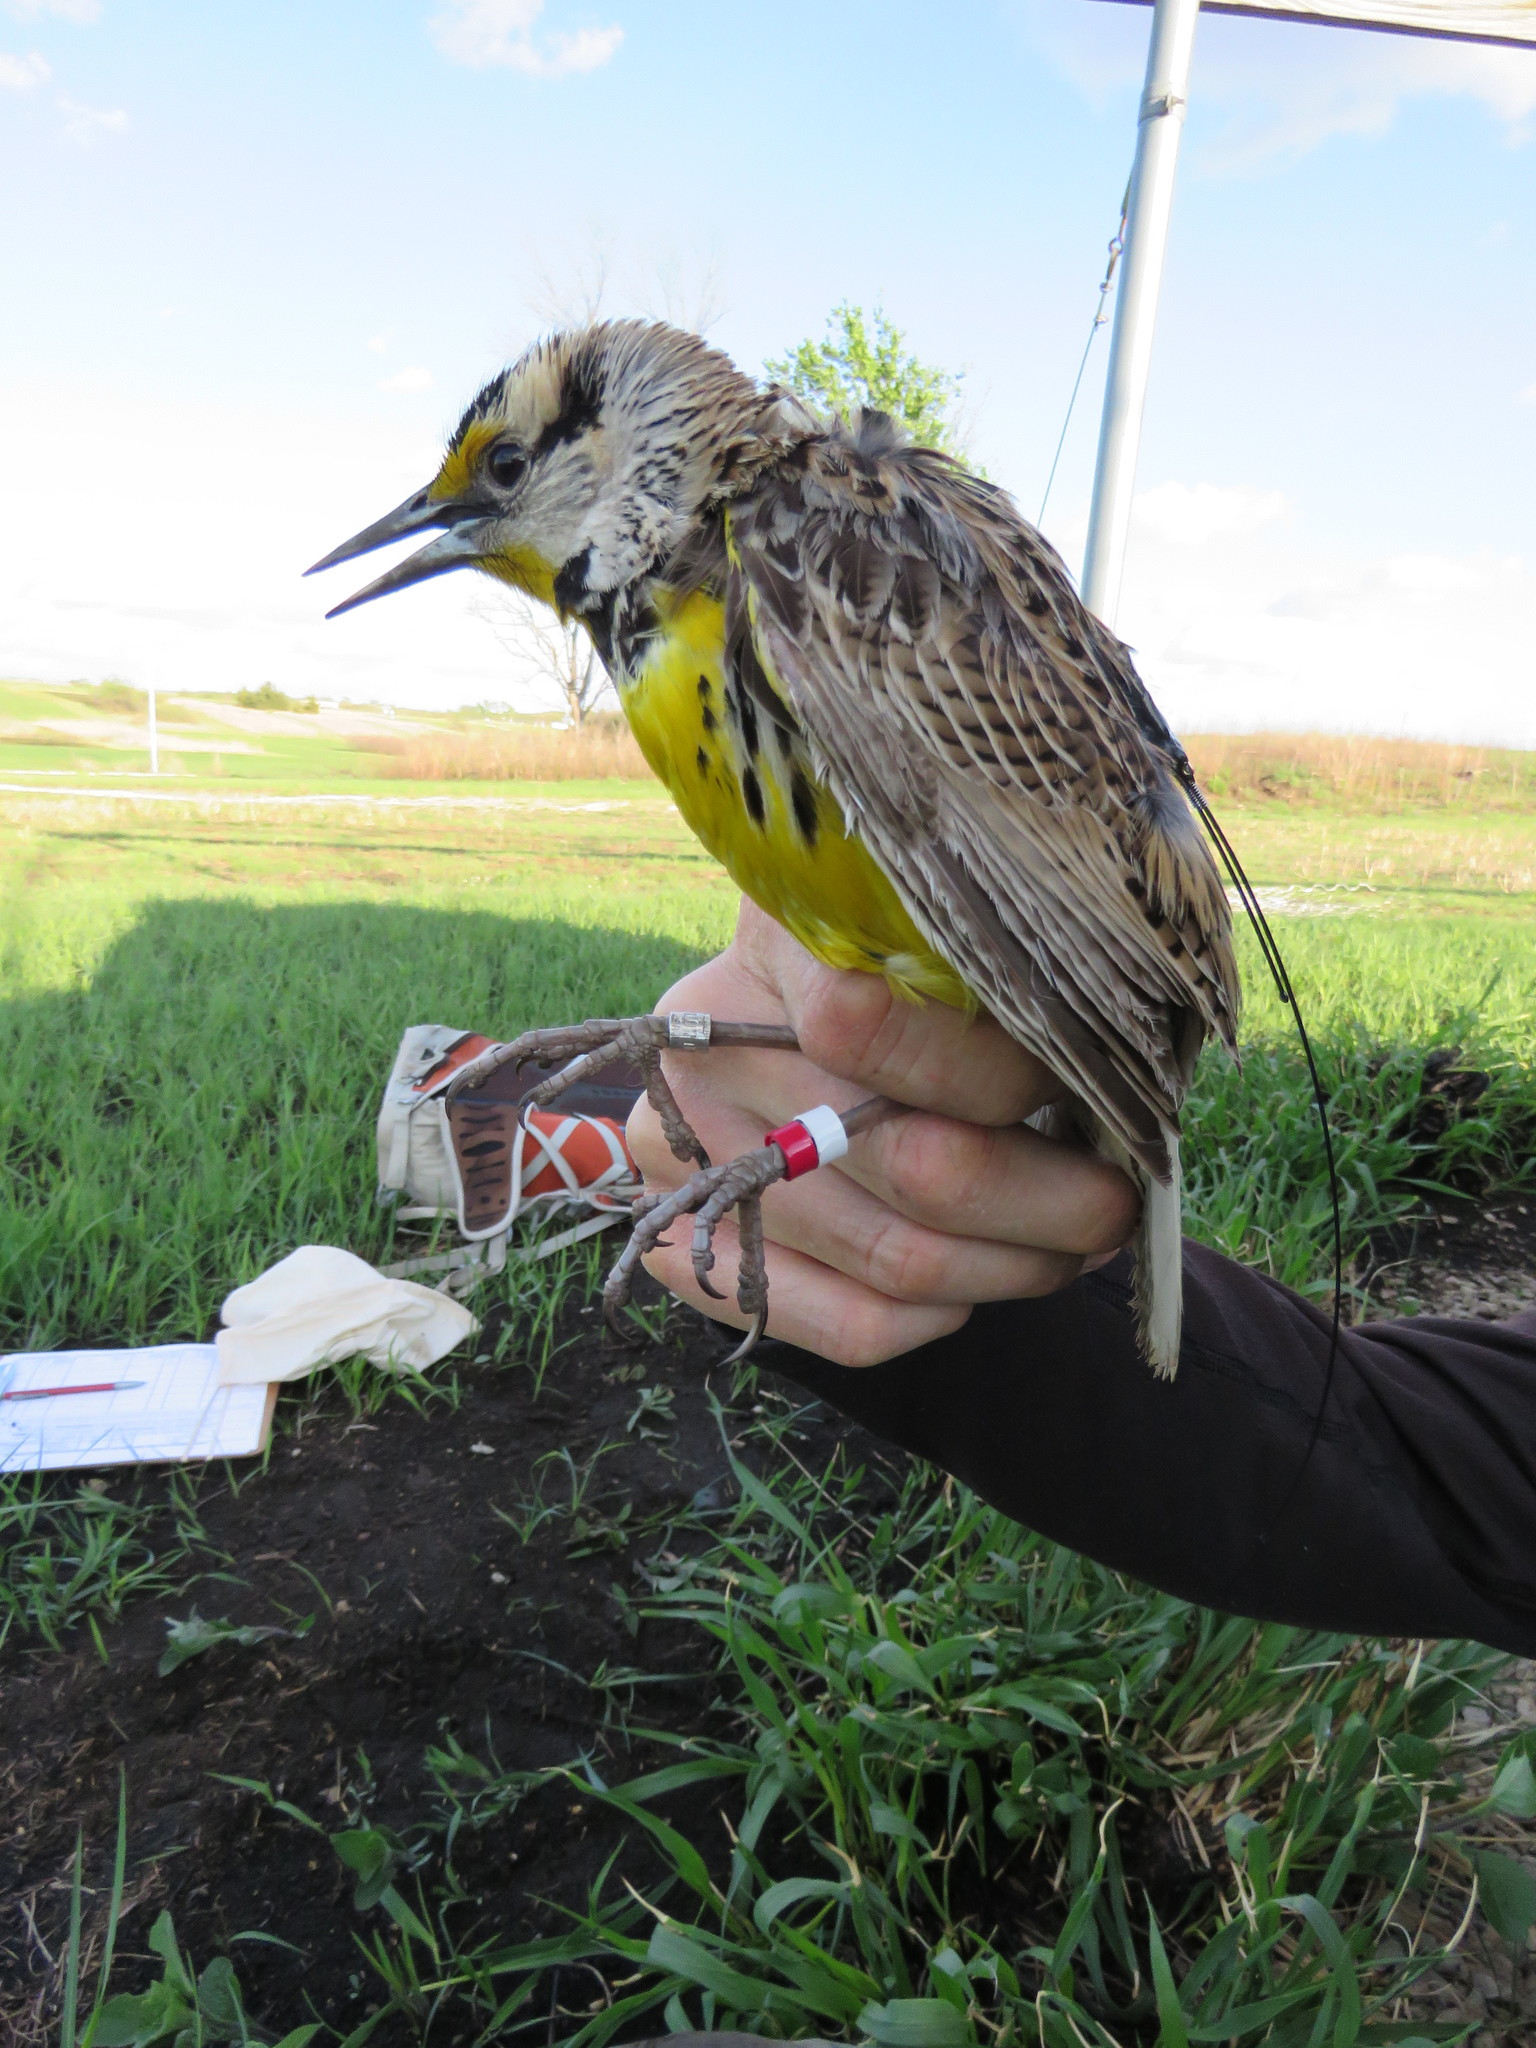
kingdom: Animalia
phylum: Chordata
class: Aves
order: Passeriformes
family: Icteridae
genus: Sturnella
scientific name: Sturnella magna
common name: Eastern meadowlark
